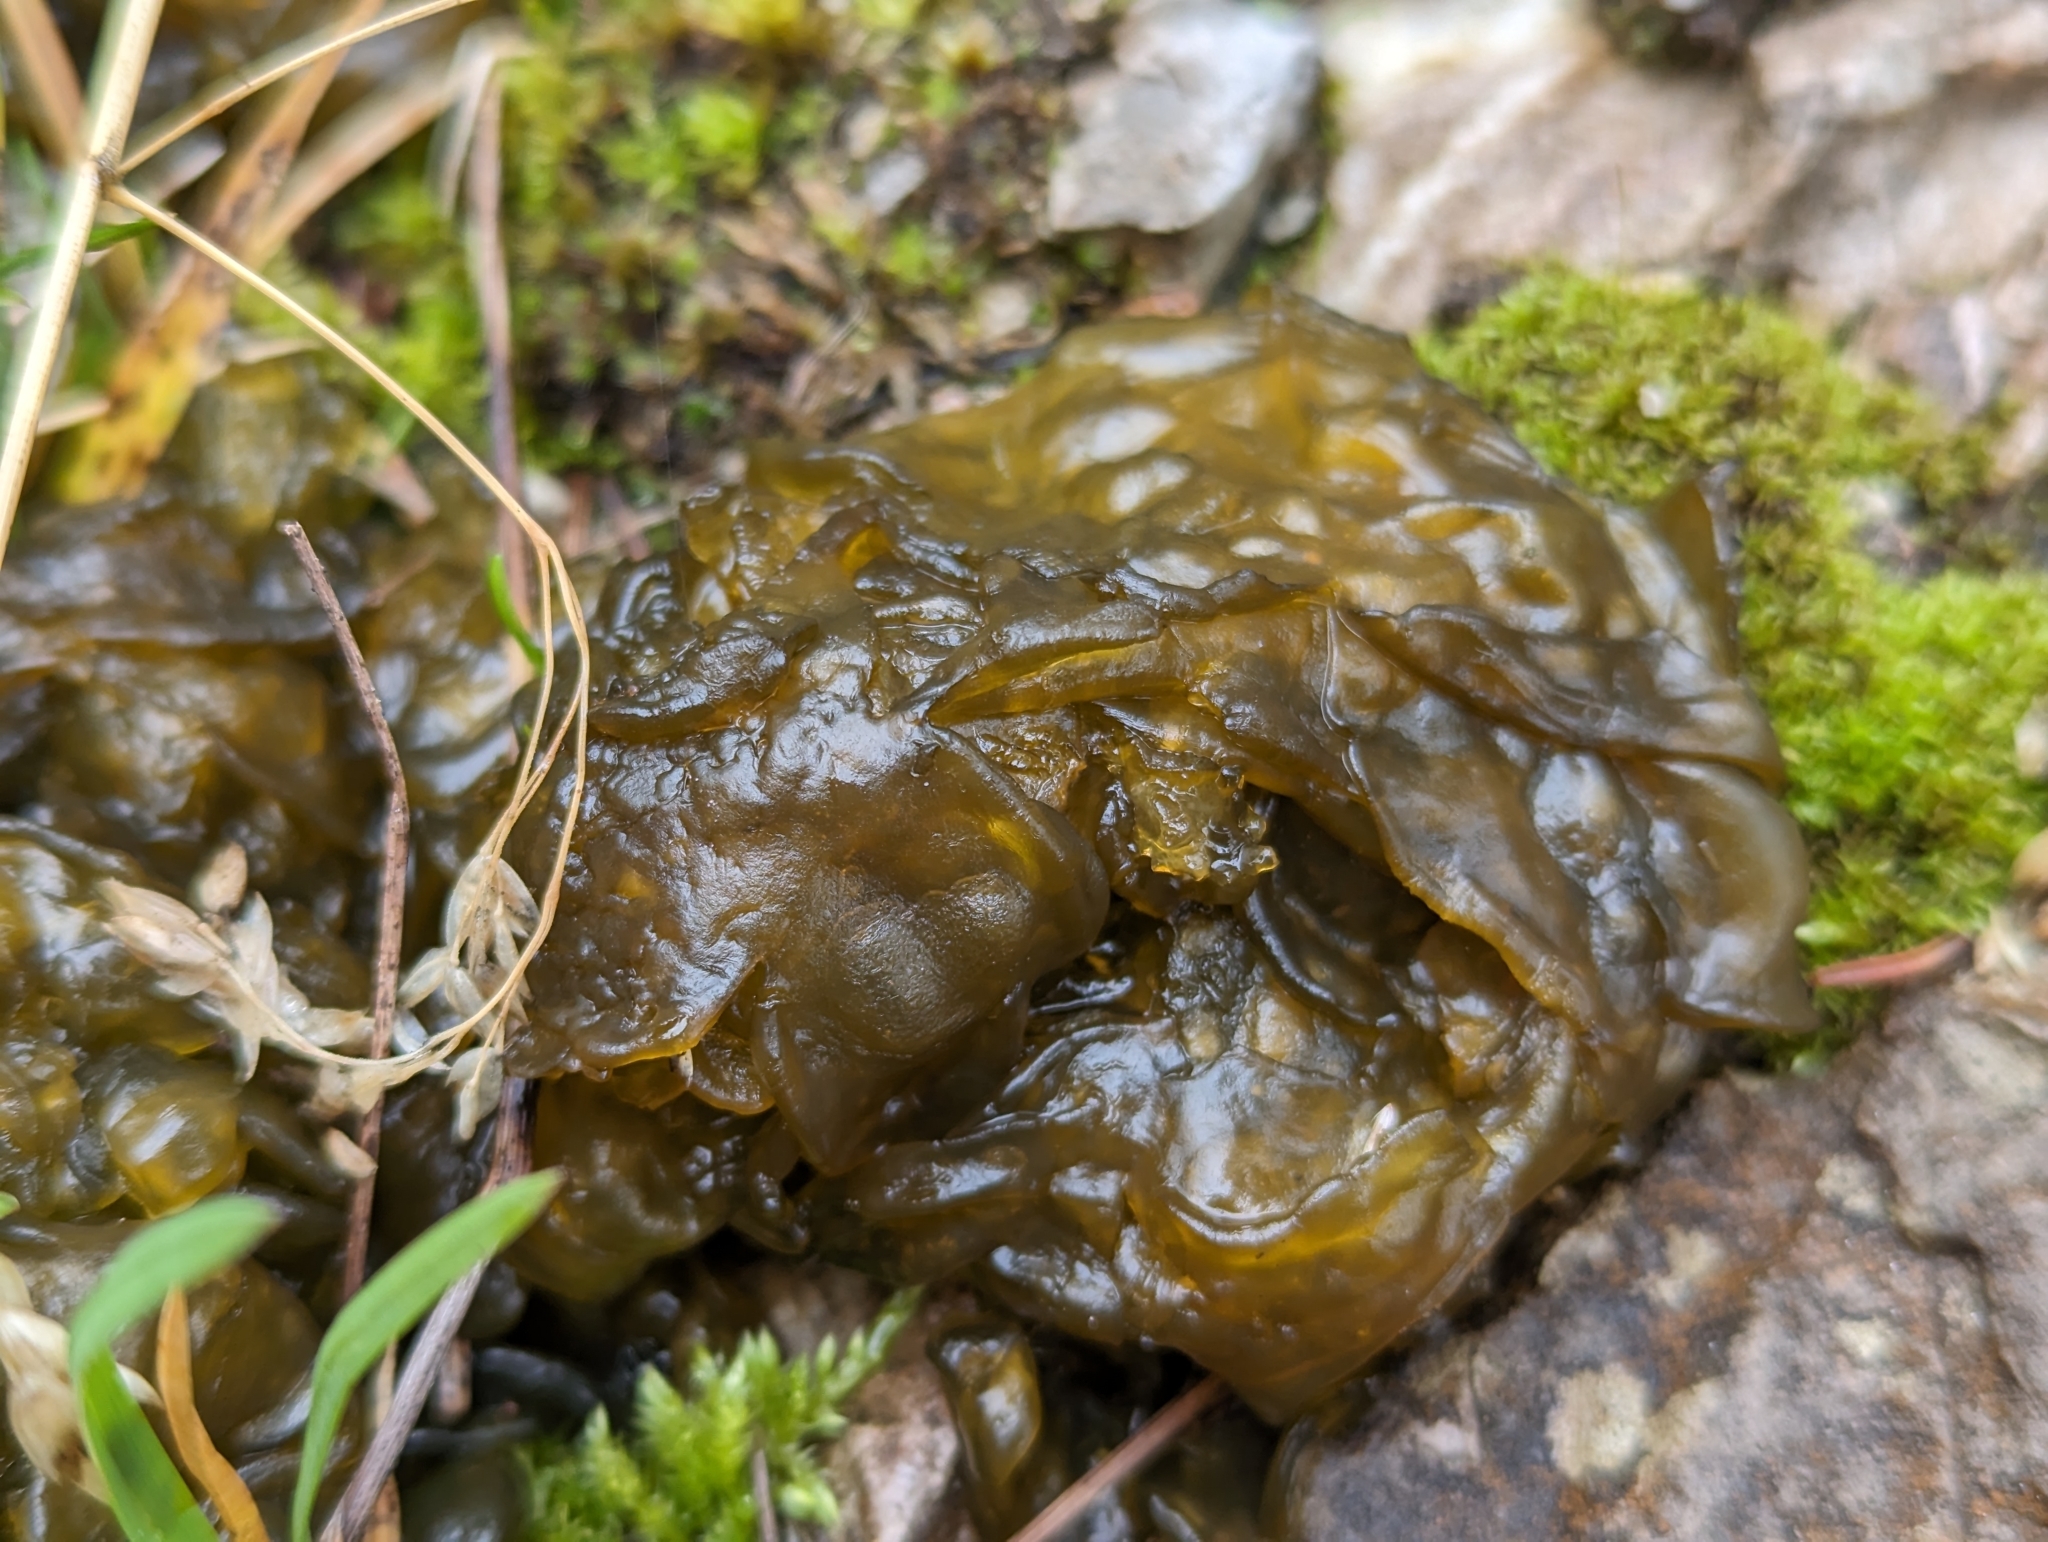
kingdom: Bacteria
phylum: Cyanobacteria
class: Cyanobacteriia
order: Cyanobacteriales
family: Nostocaceae
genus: Nostoc
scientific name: Nostoc commune
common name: Star jelly
